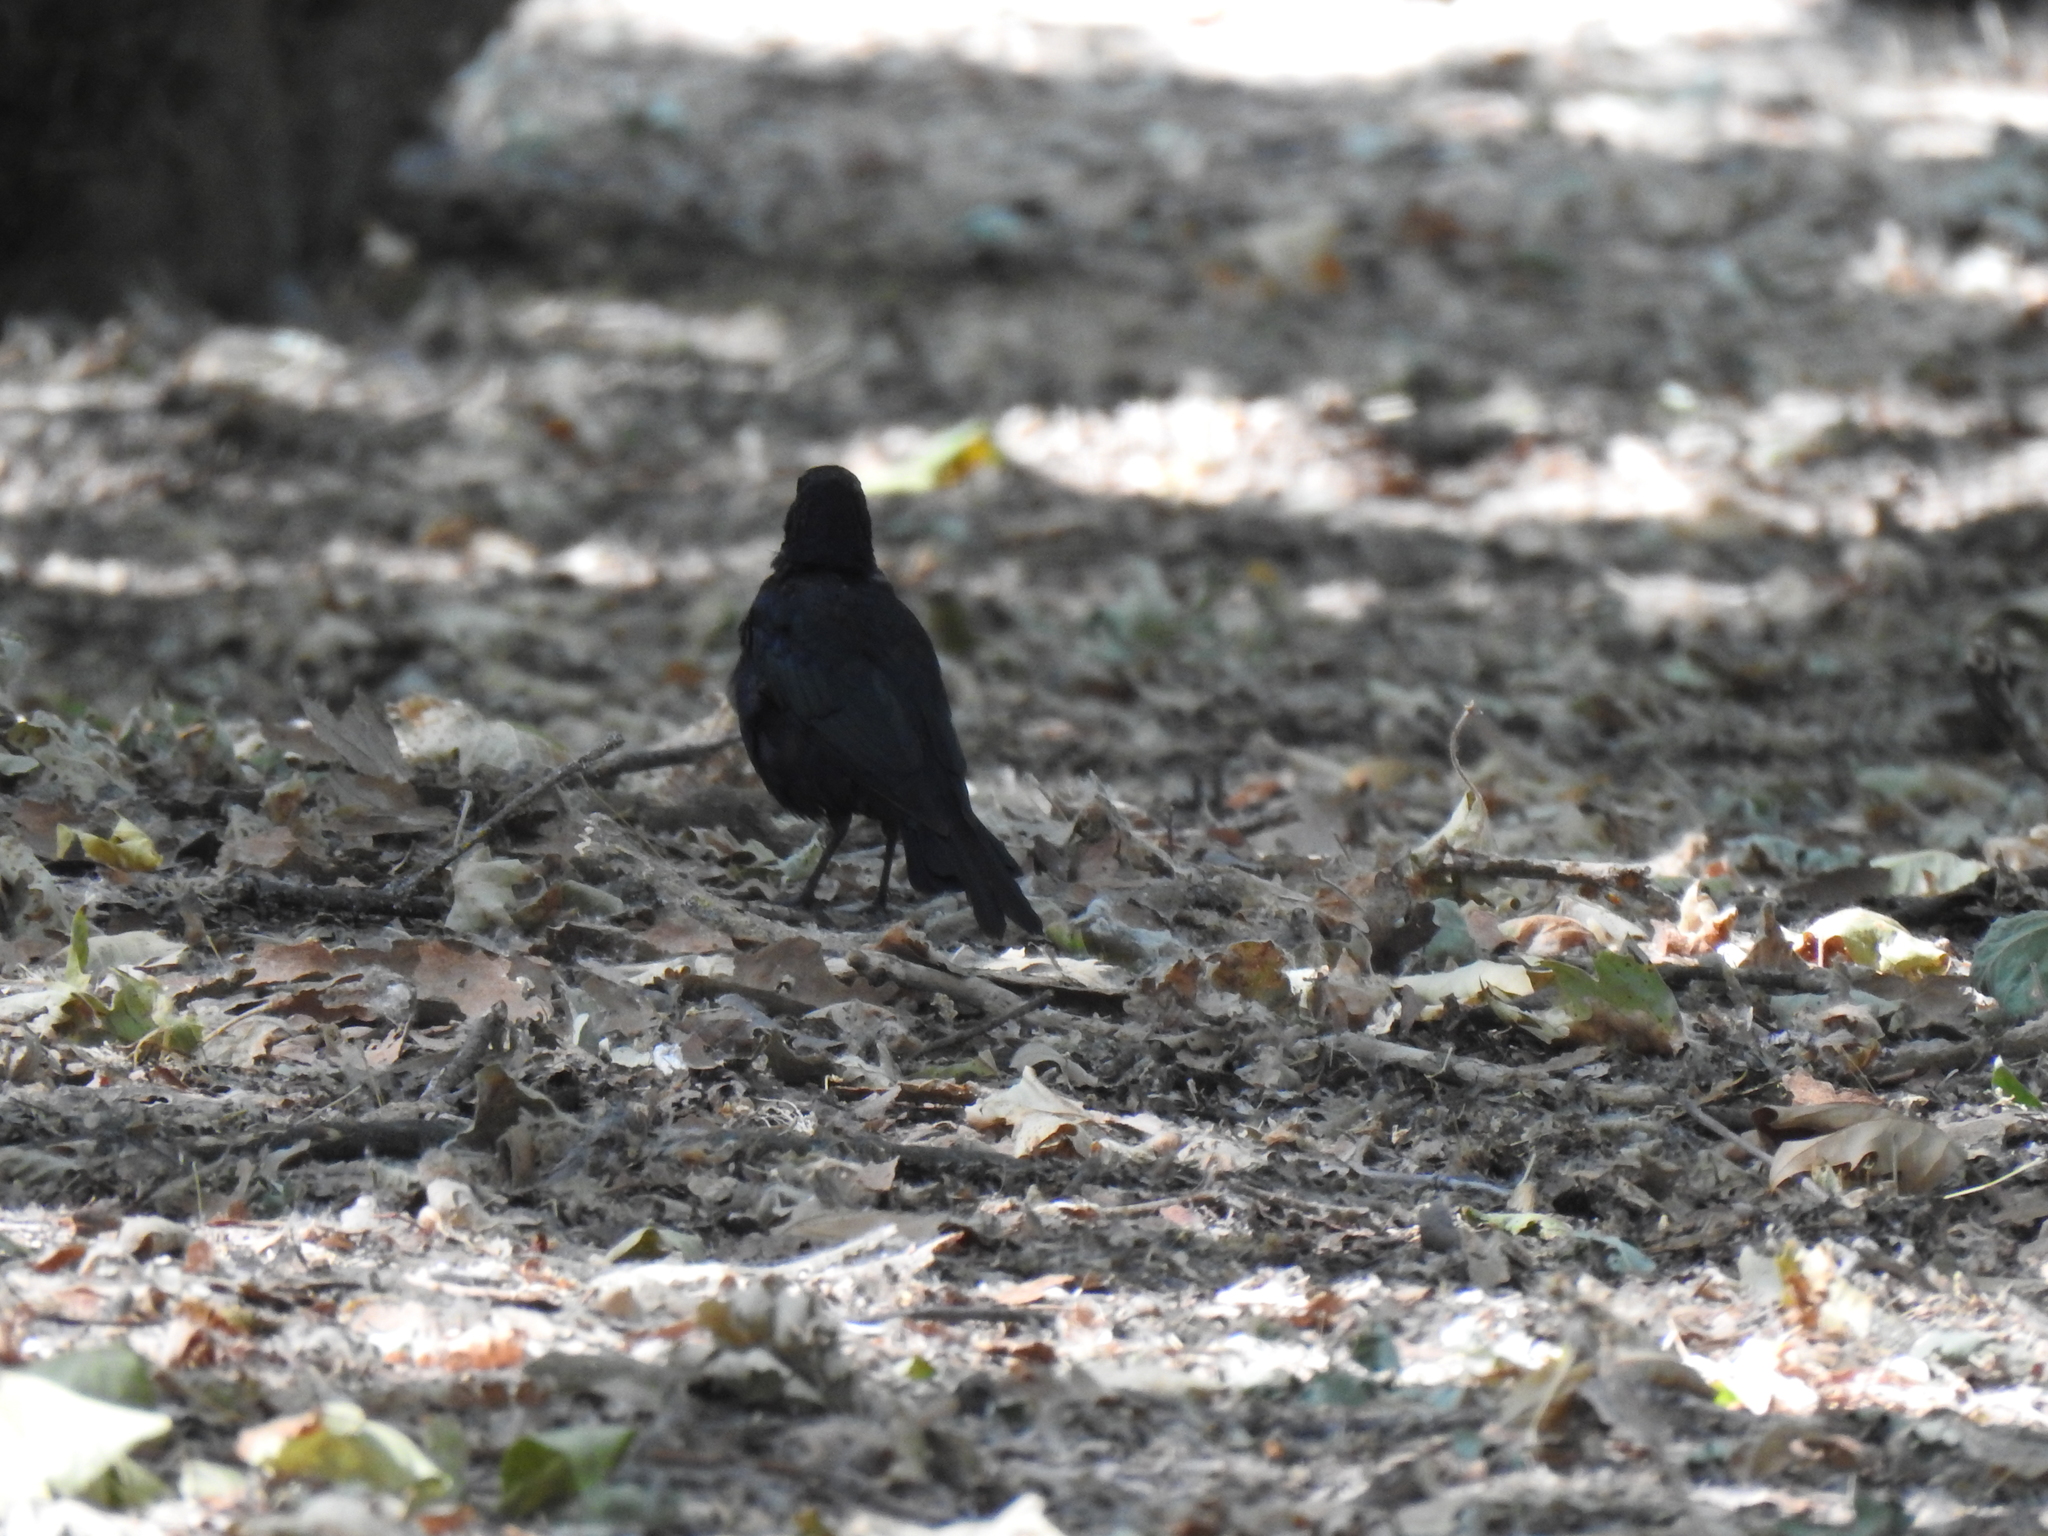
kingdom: Animalia
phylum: Chordata
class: Aves
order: Passeriformes
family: Icteridae
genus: Euphagus
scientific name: Euphagus cyanocephalus
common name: Brewer's blackbird
